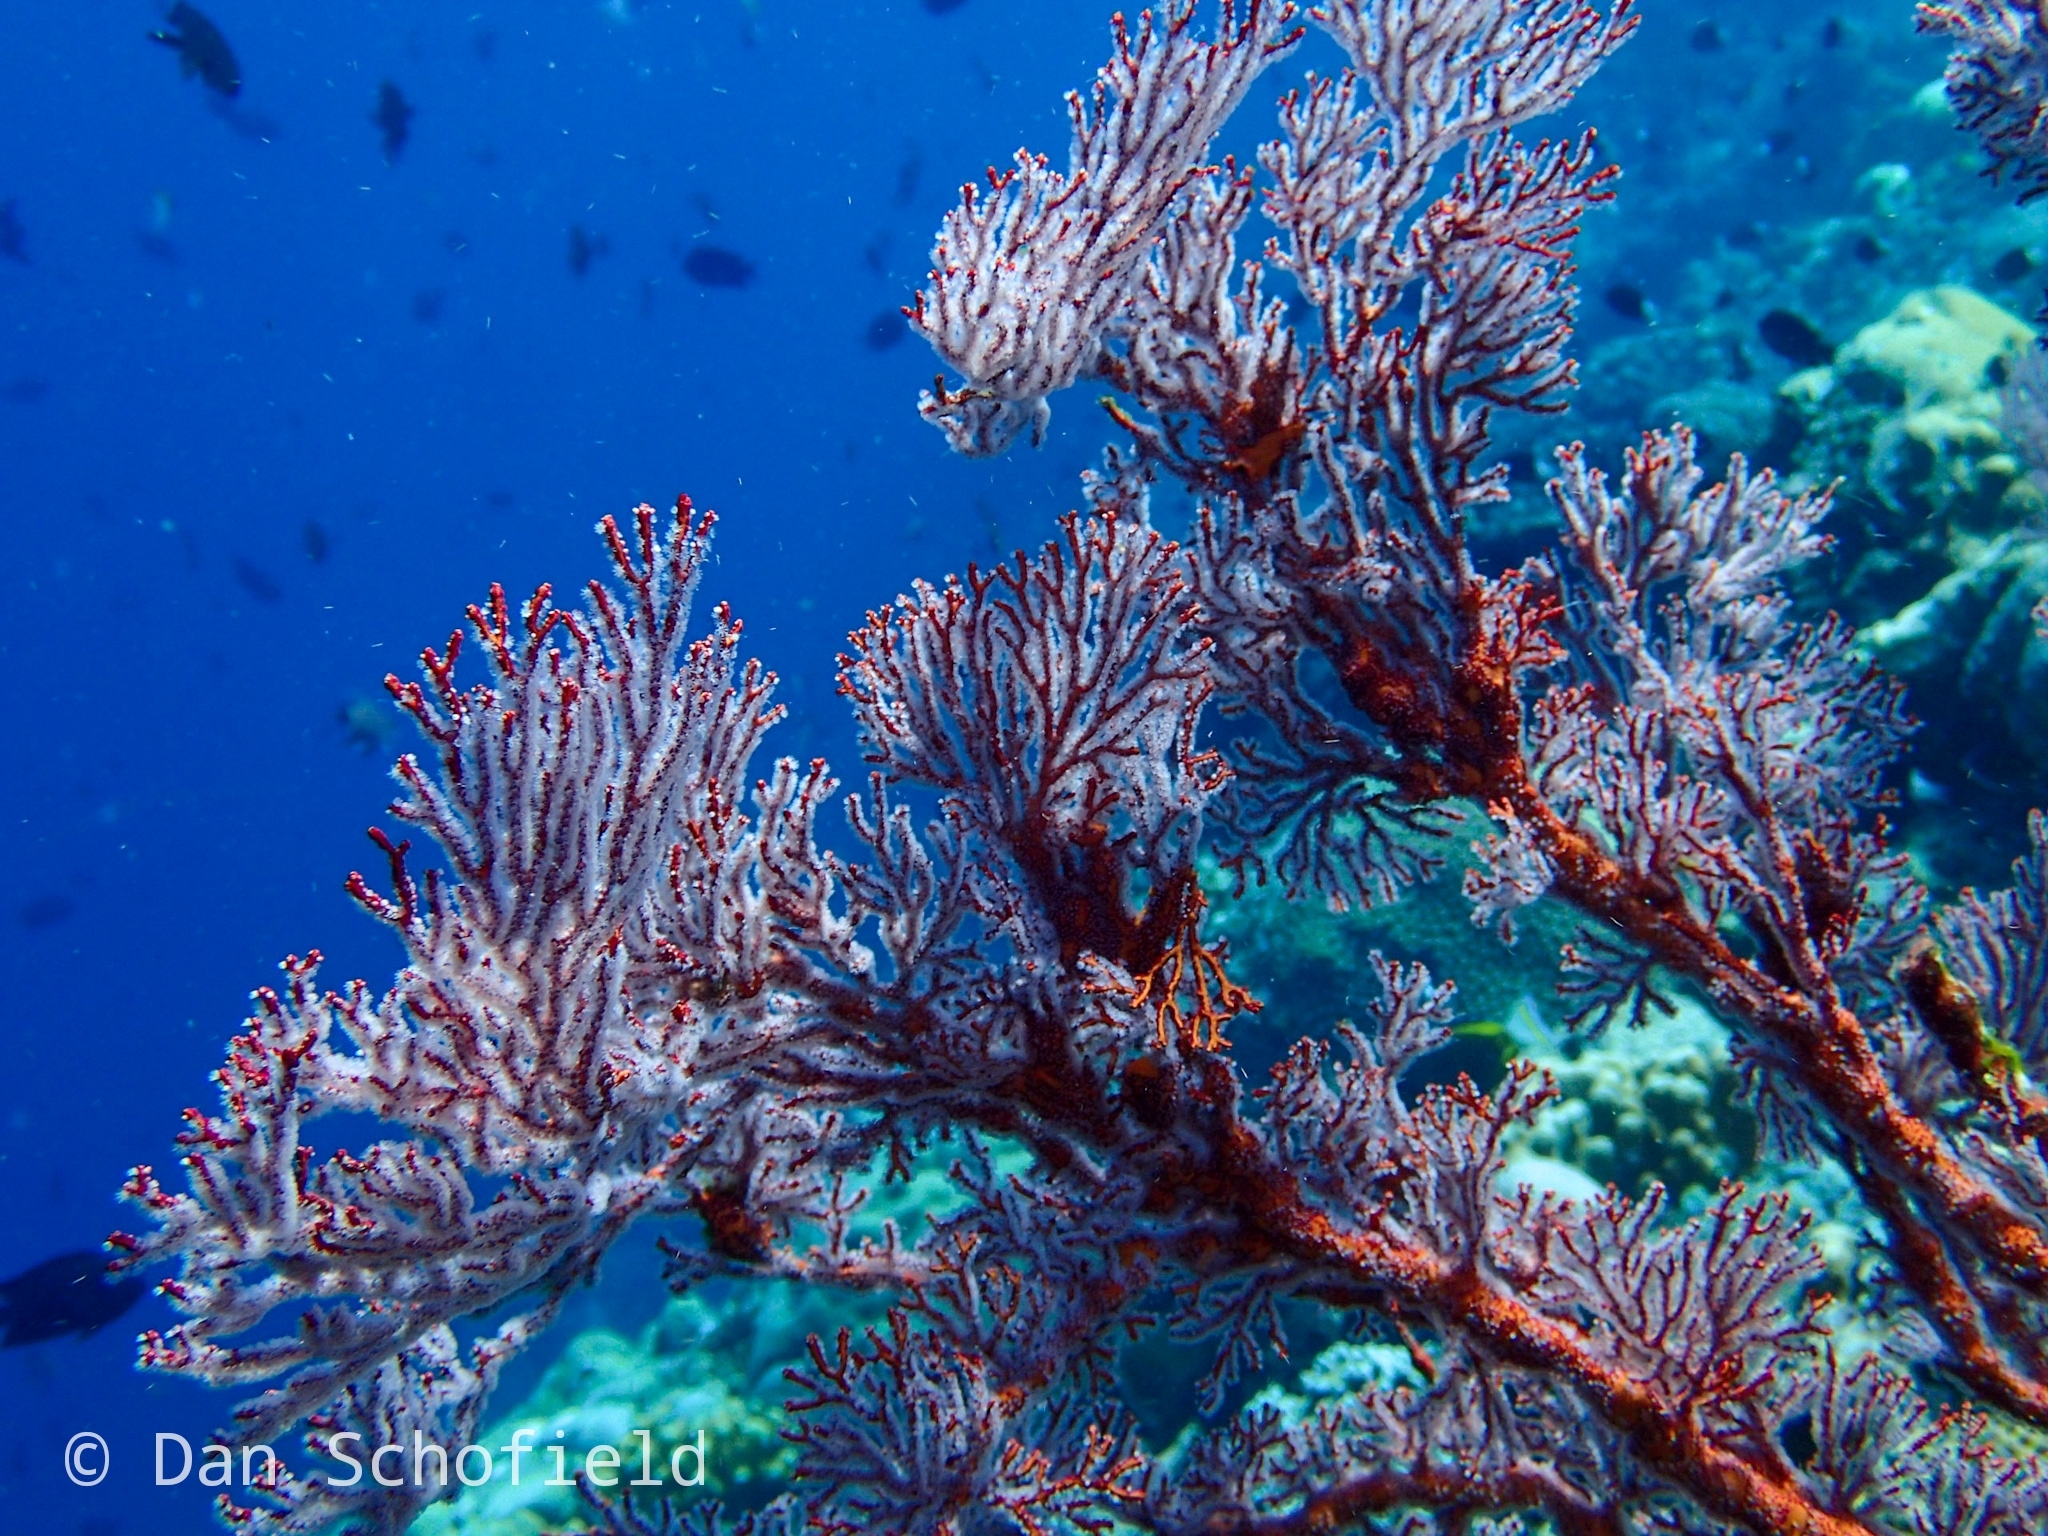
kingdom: Animalia
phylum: Cnidaria
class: Anthozoa
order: Malacalcyonacea
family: Melithaeidae
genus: Melithaea
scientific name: Melithaea ochracea
